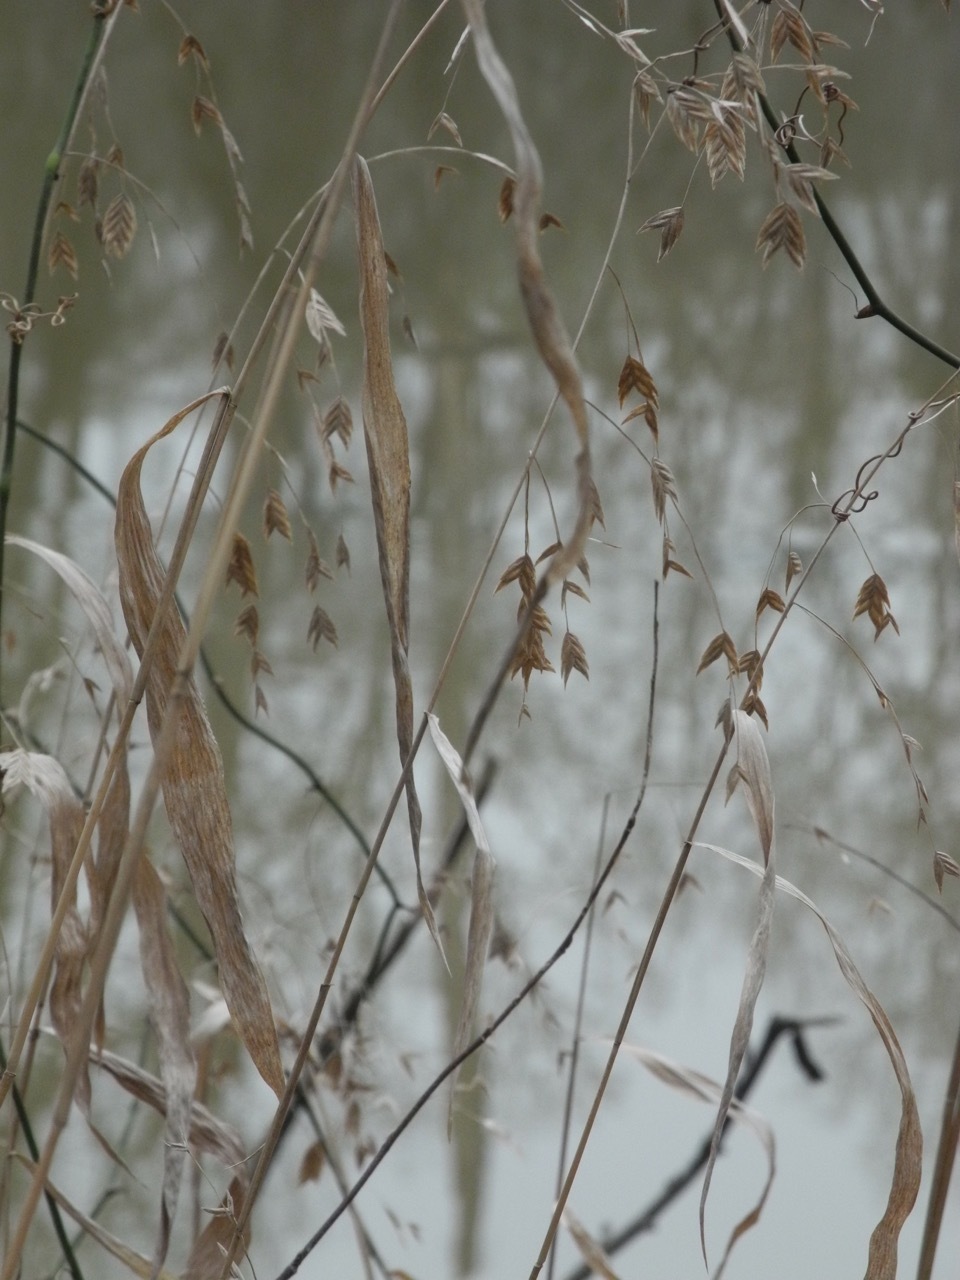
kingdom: Plantae
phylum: Tracheophyta
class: Liliopsida
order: Poales
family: Poaceae
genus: Chasmanthium
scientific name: Chasmanthium latifolium
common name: Broad-leaved chasmanthium
